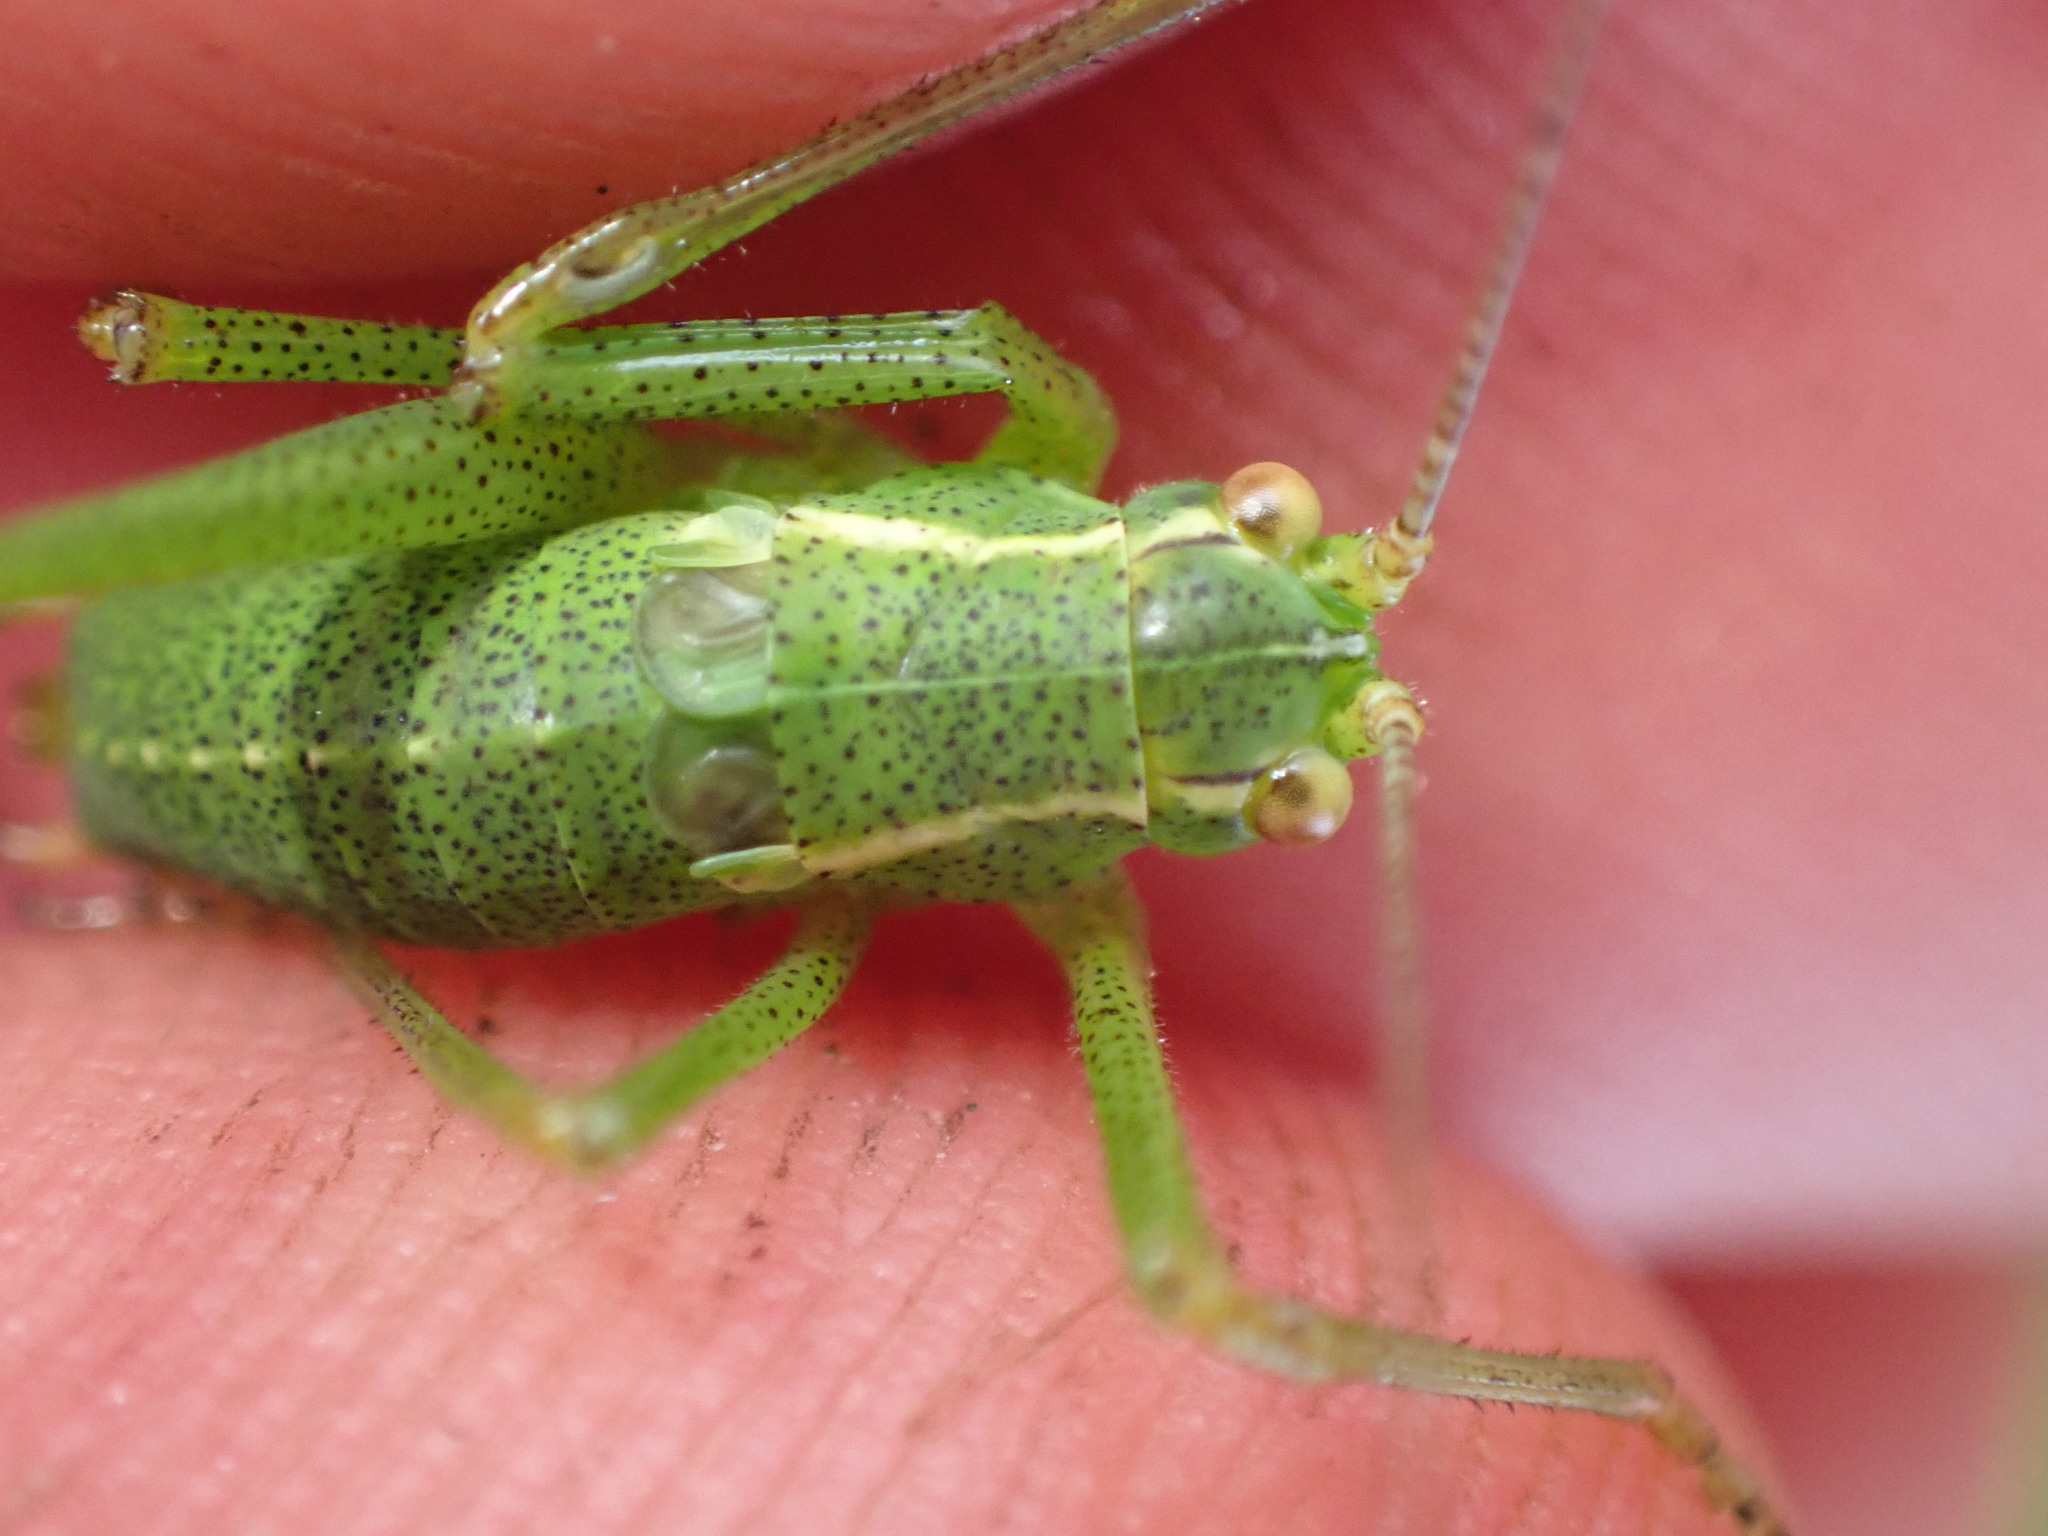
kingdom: Animalia
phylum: Arthropoda
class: Insecta
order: Orthoptera
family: Tettigoniidae
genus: Leptophyes
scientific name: Leptophyes punctatissima
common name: Speckled bush-cricket
